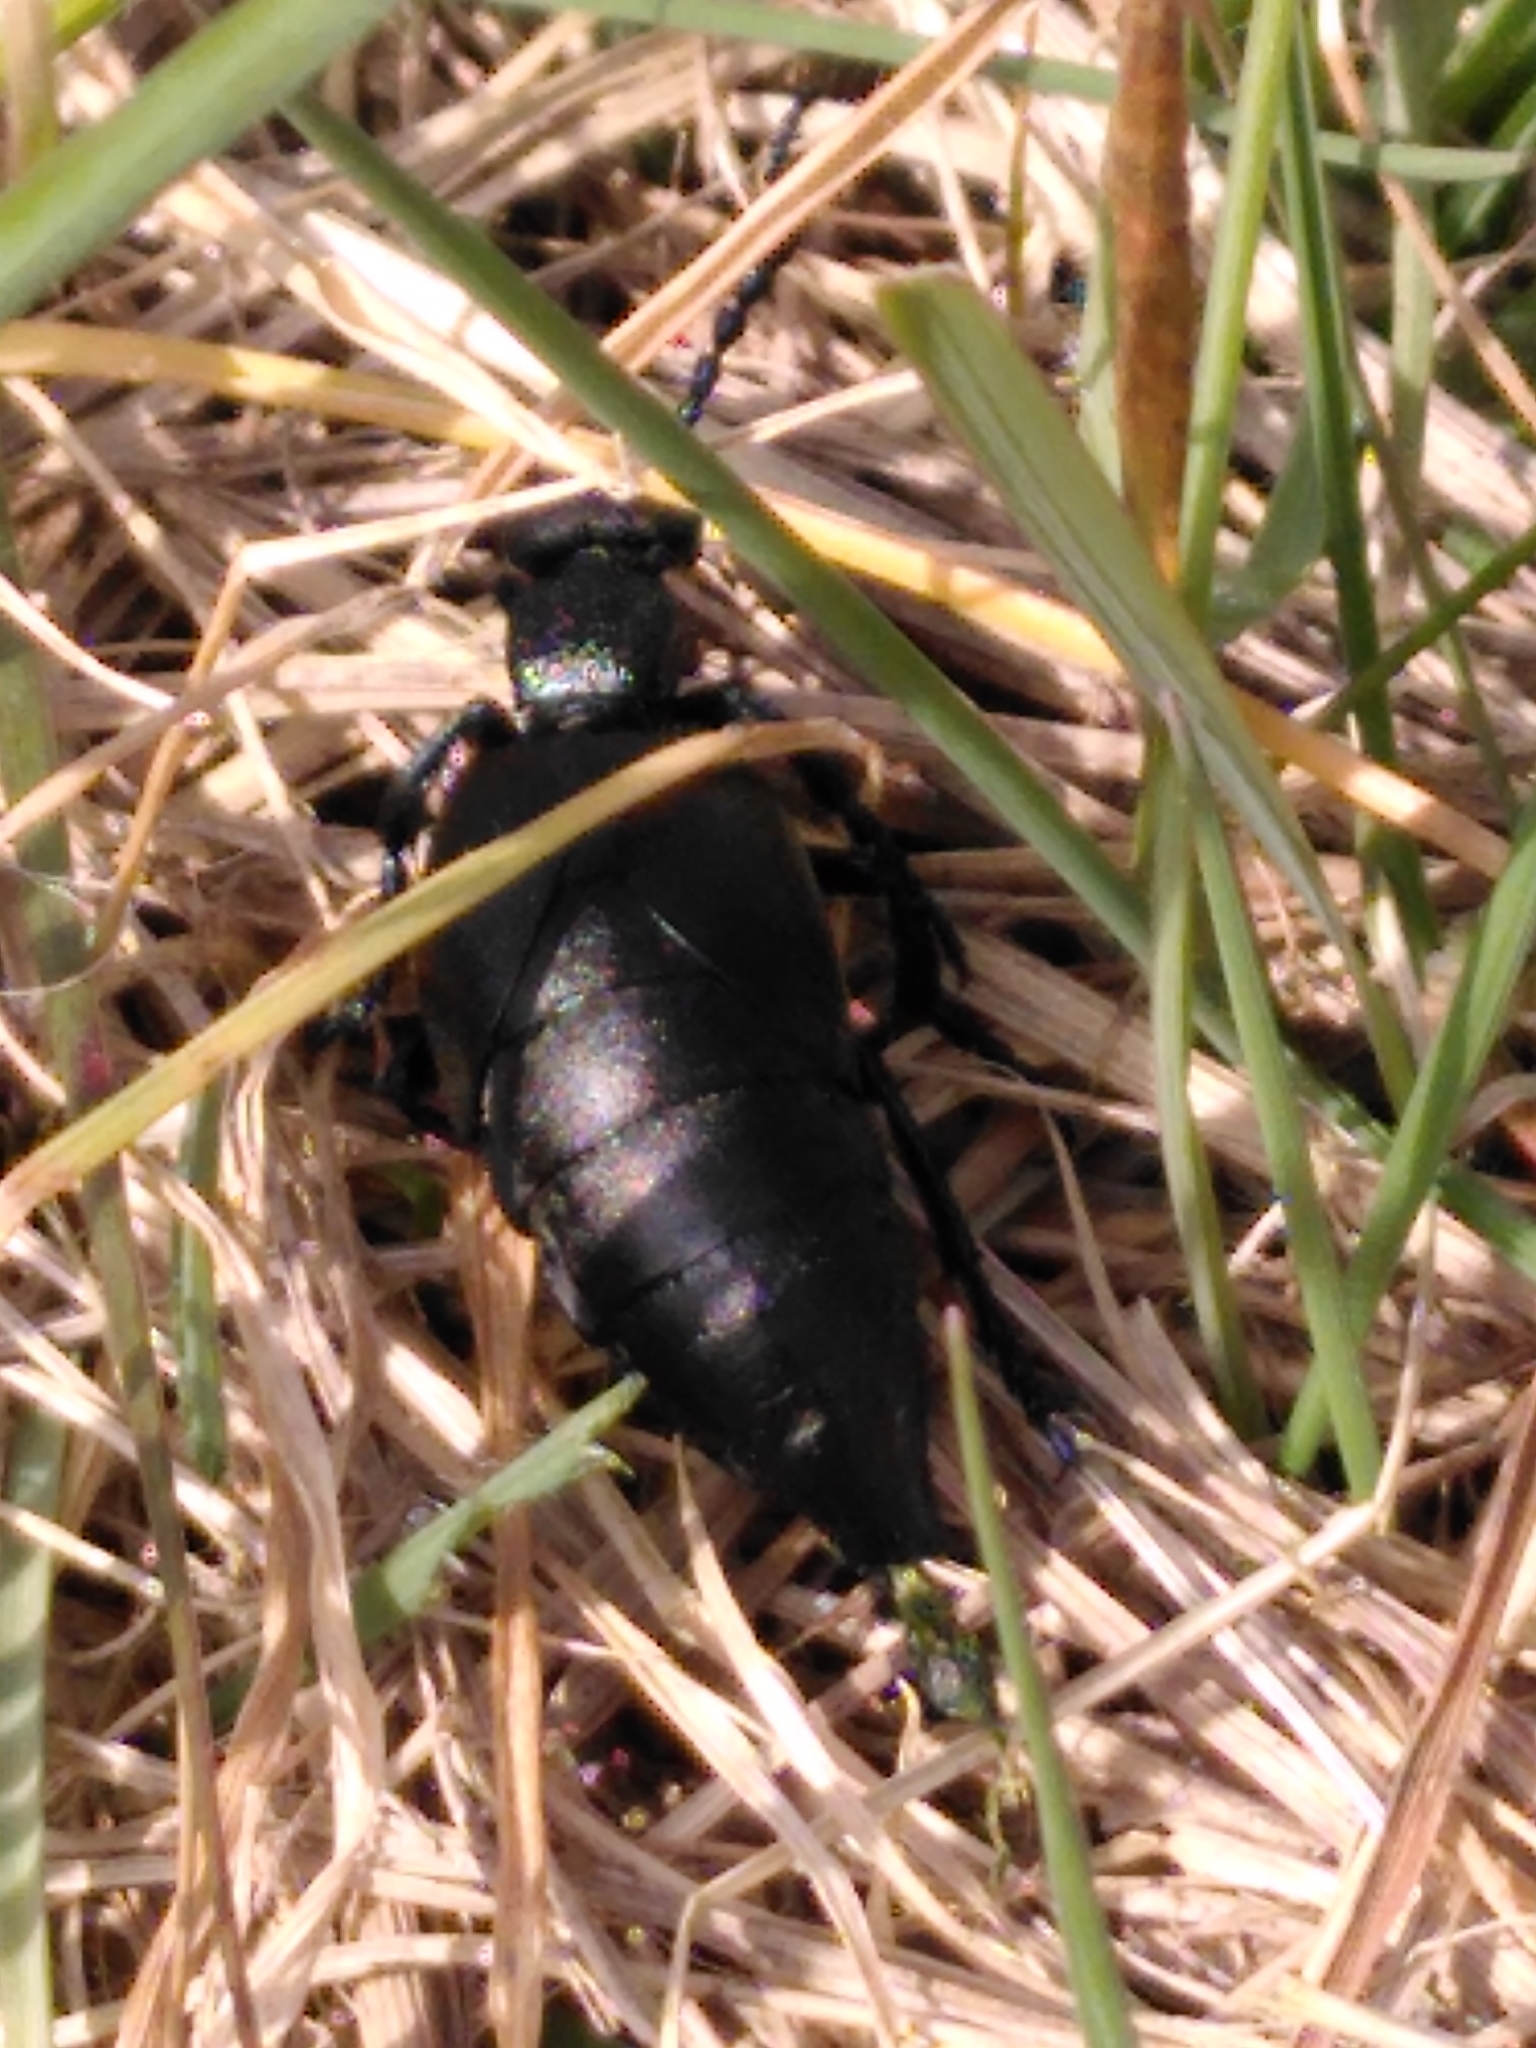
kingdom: Animalia
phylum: Arthropoda
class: Insecta
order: Coleoptera
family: Meloidae
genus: Meloe
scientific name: Meloe proscarabaeus
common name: Black oil-beetle
